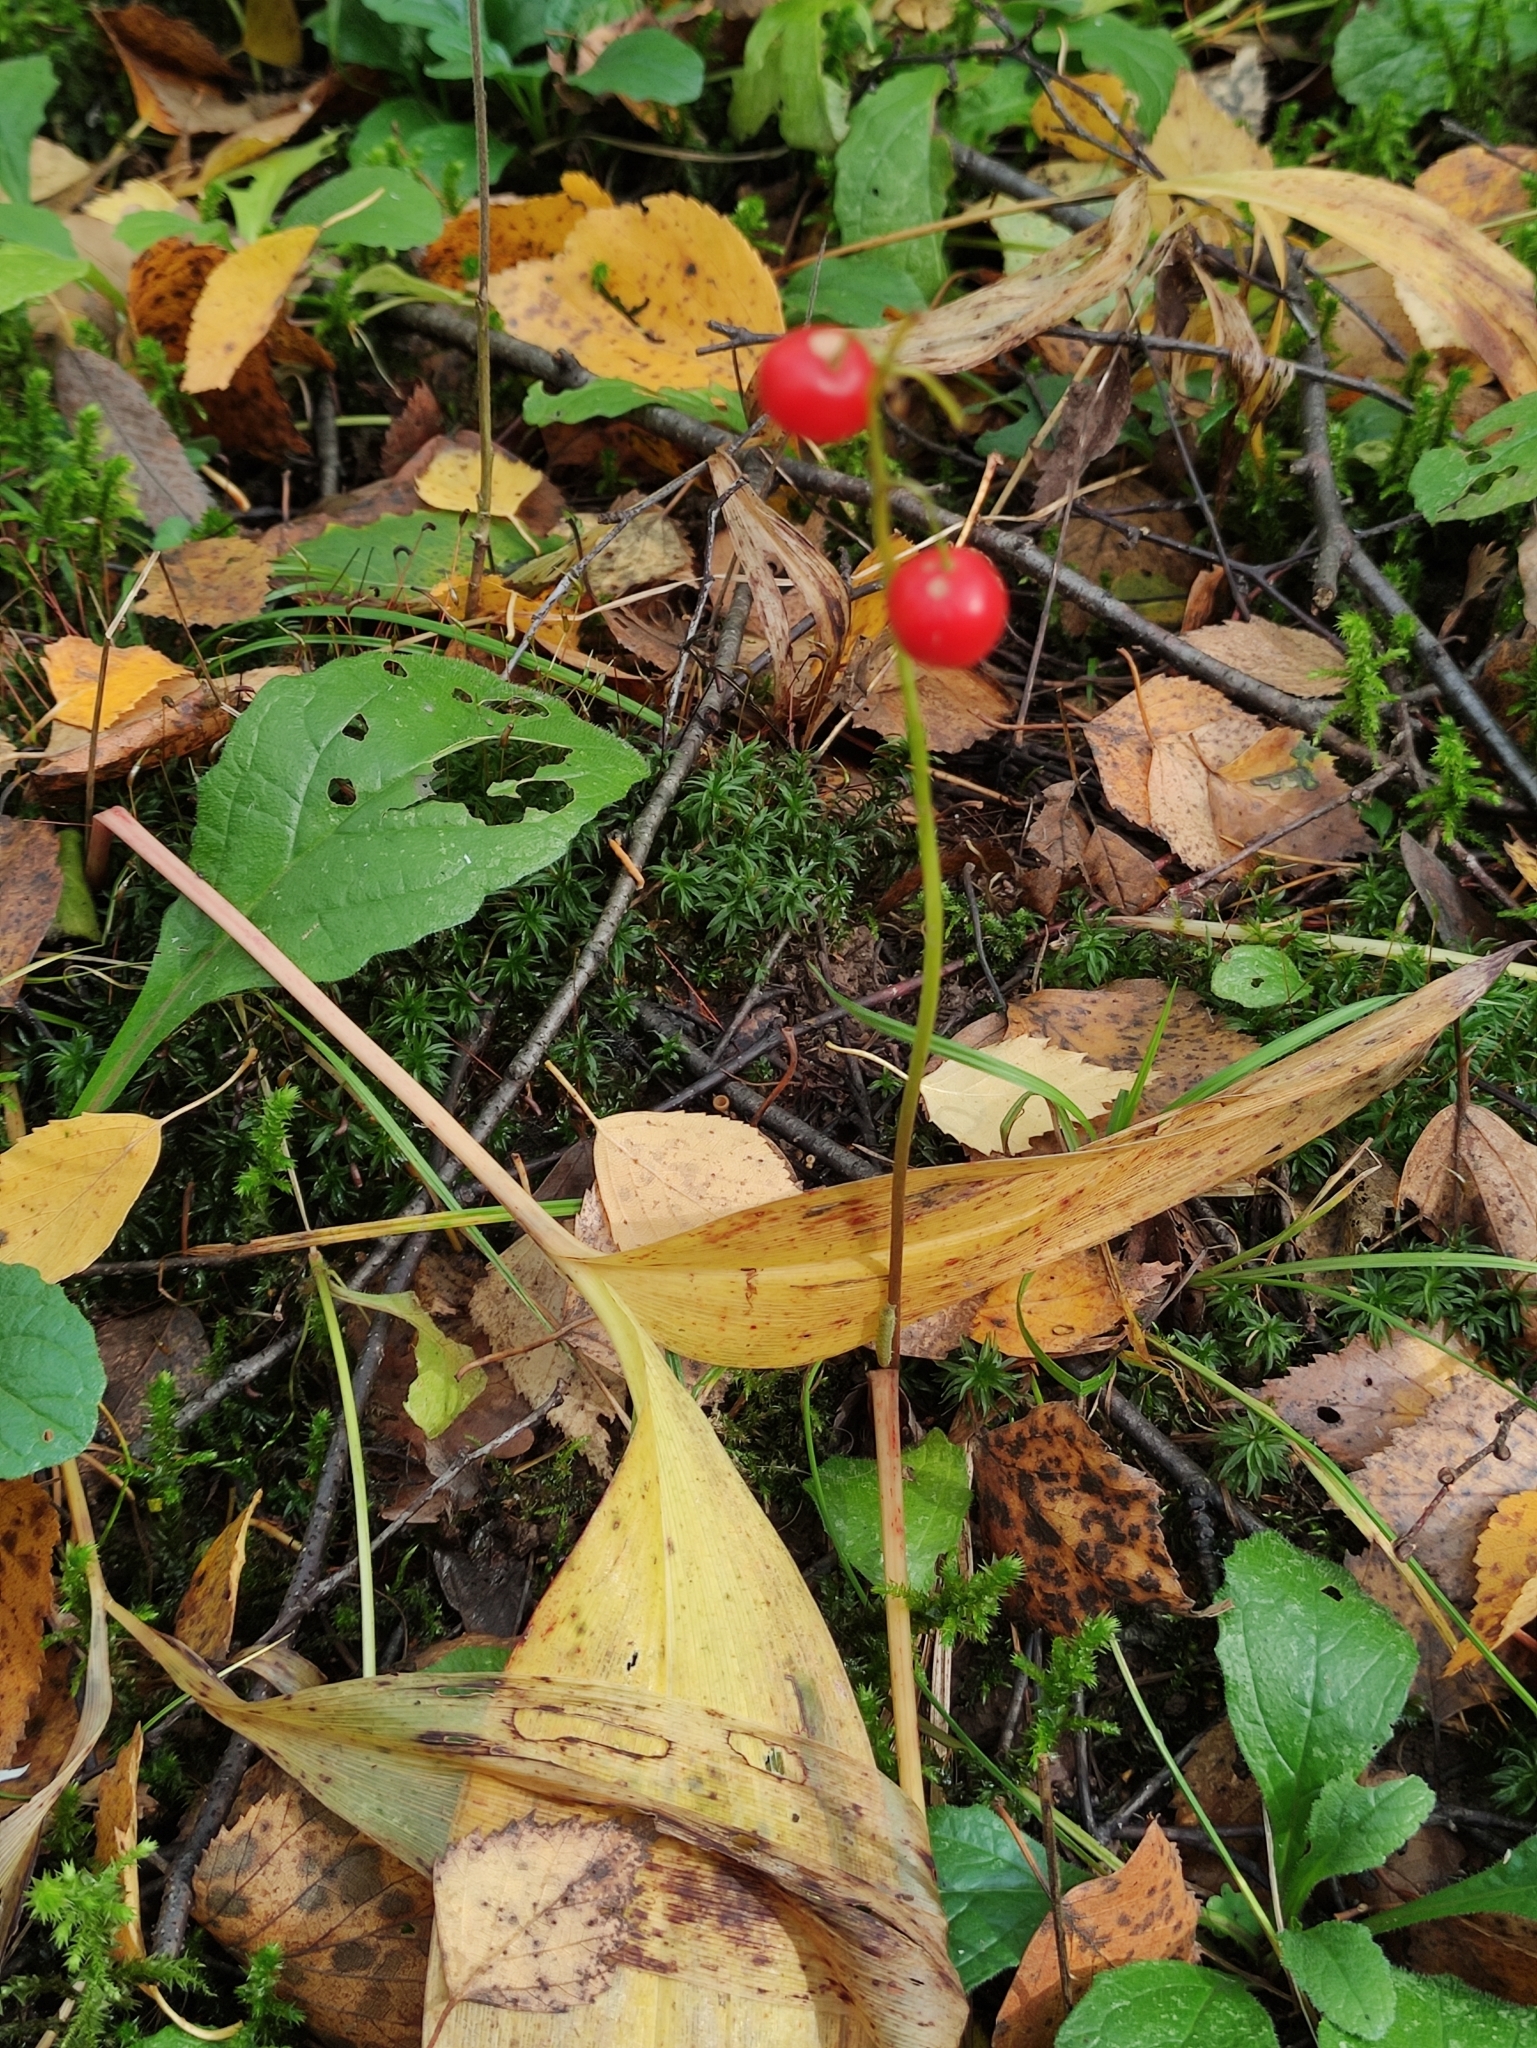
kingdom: Plantae
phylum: Tracheophyta
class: Liliopsida
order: Asparagales
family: Asparagaceae
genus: Convallaria
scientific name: Convallaria majalis
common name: Lily-of-the-valley
